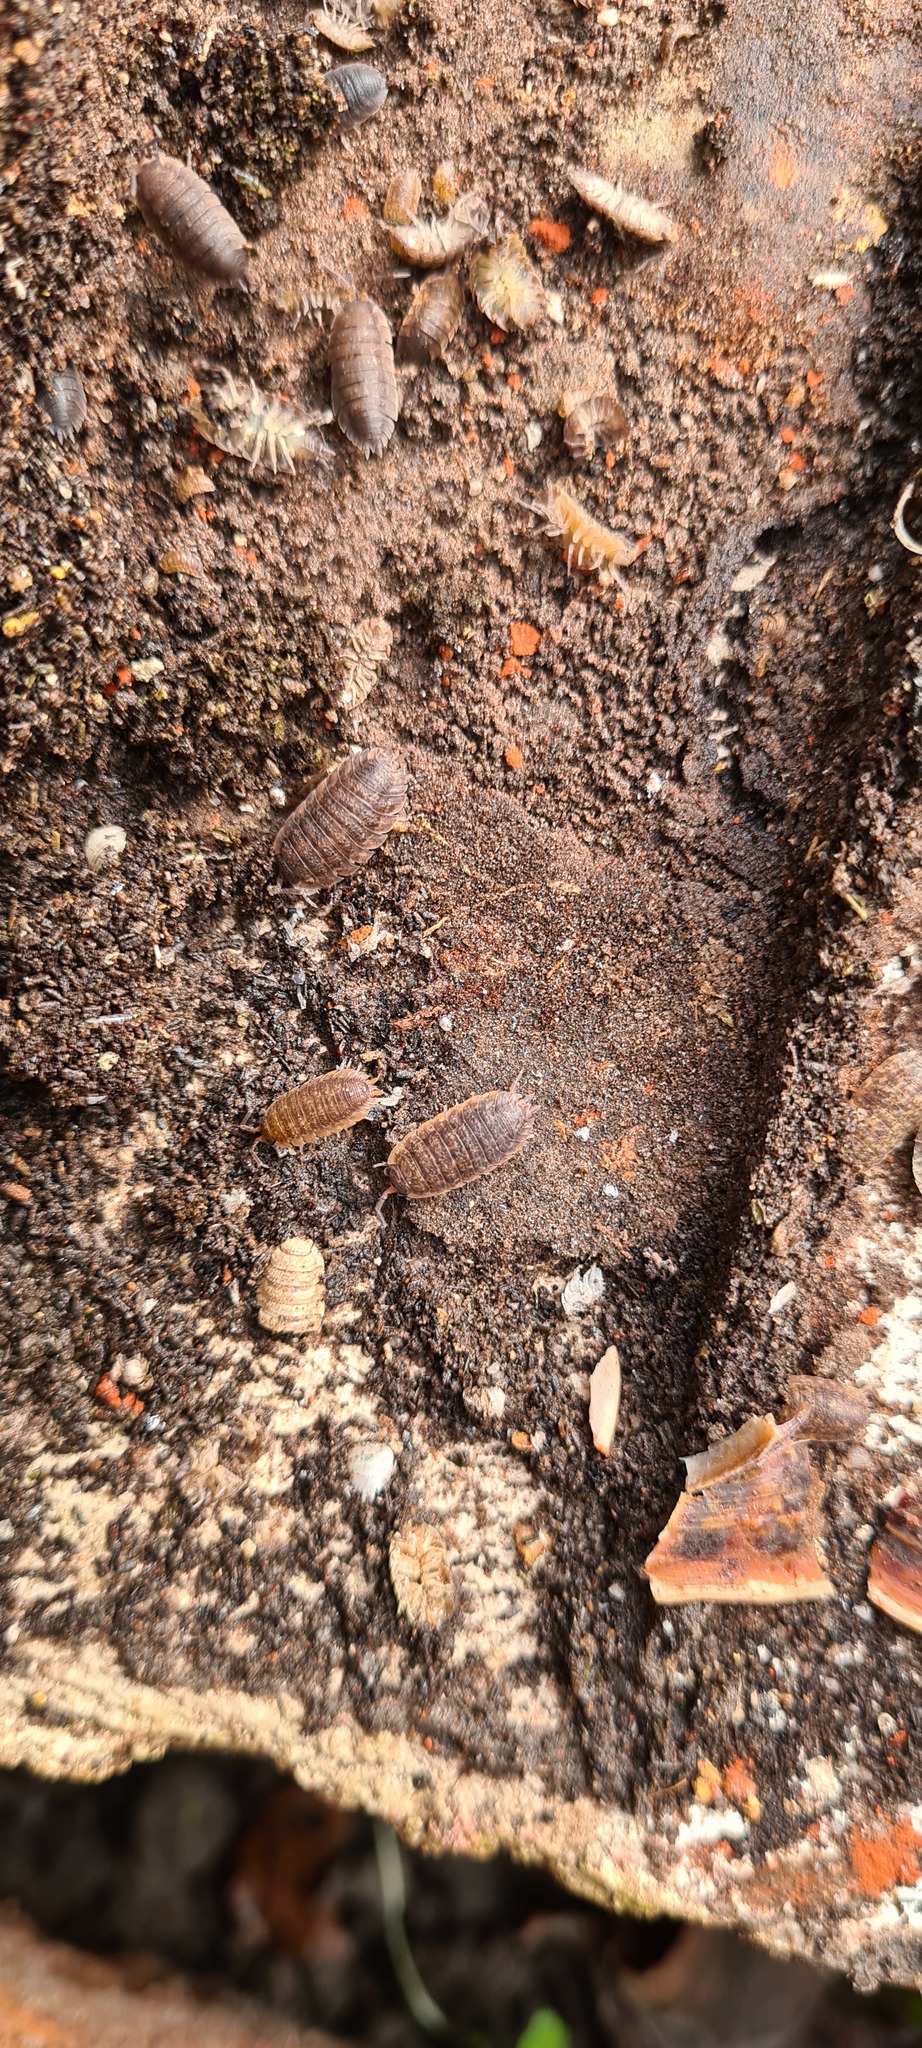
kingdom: Animalia
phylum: Arthropoda
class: Malacostraca
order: Isopoda
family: Porcellionidae
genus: Porcellio
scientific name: Porcellio scaber
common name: Common rough woodlouse
